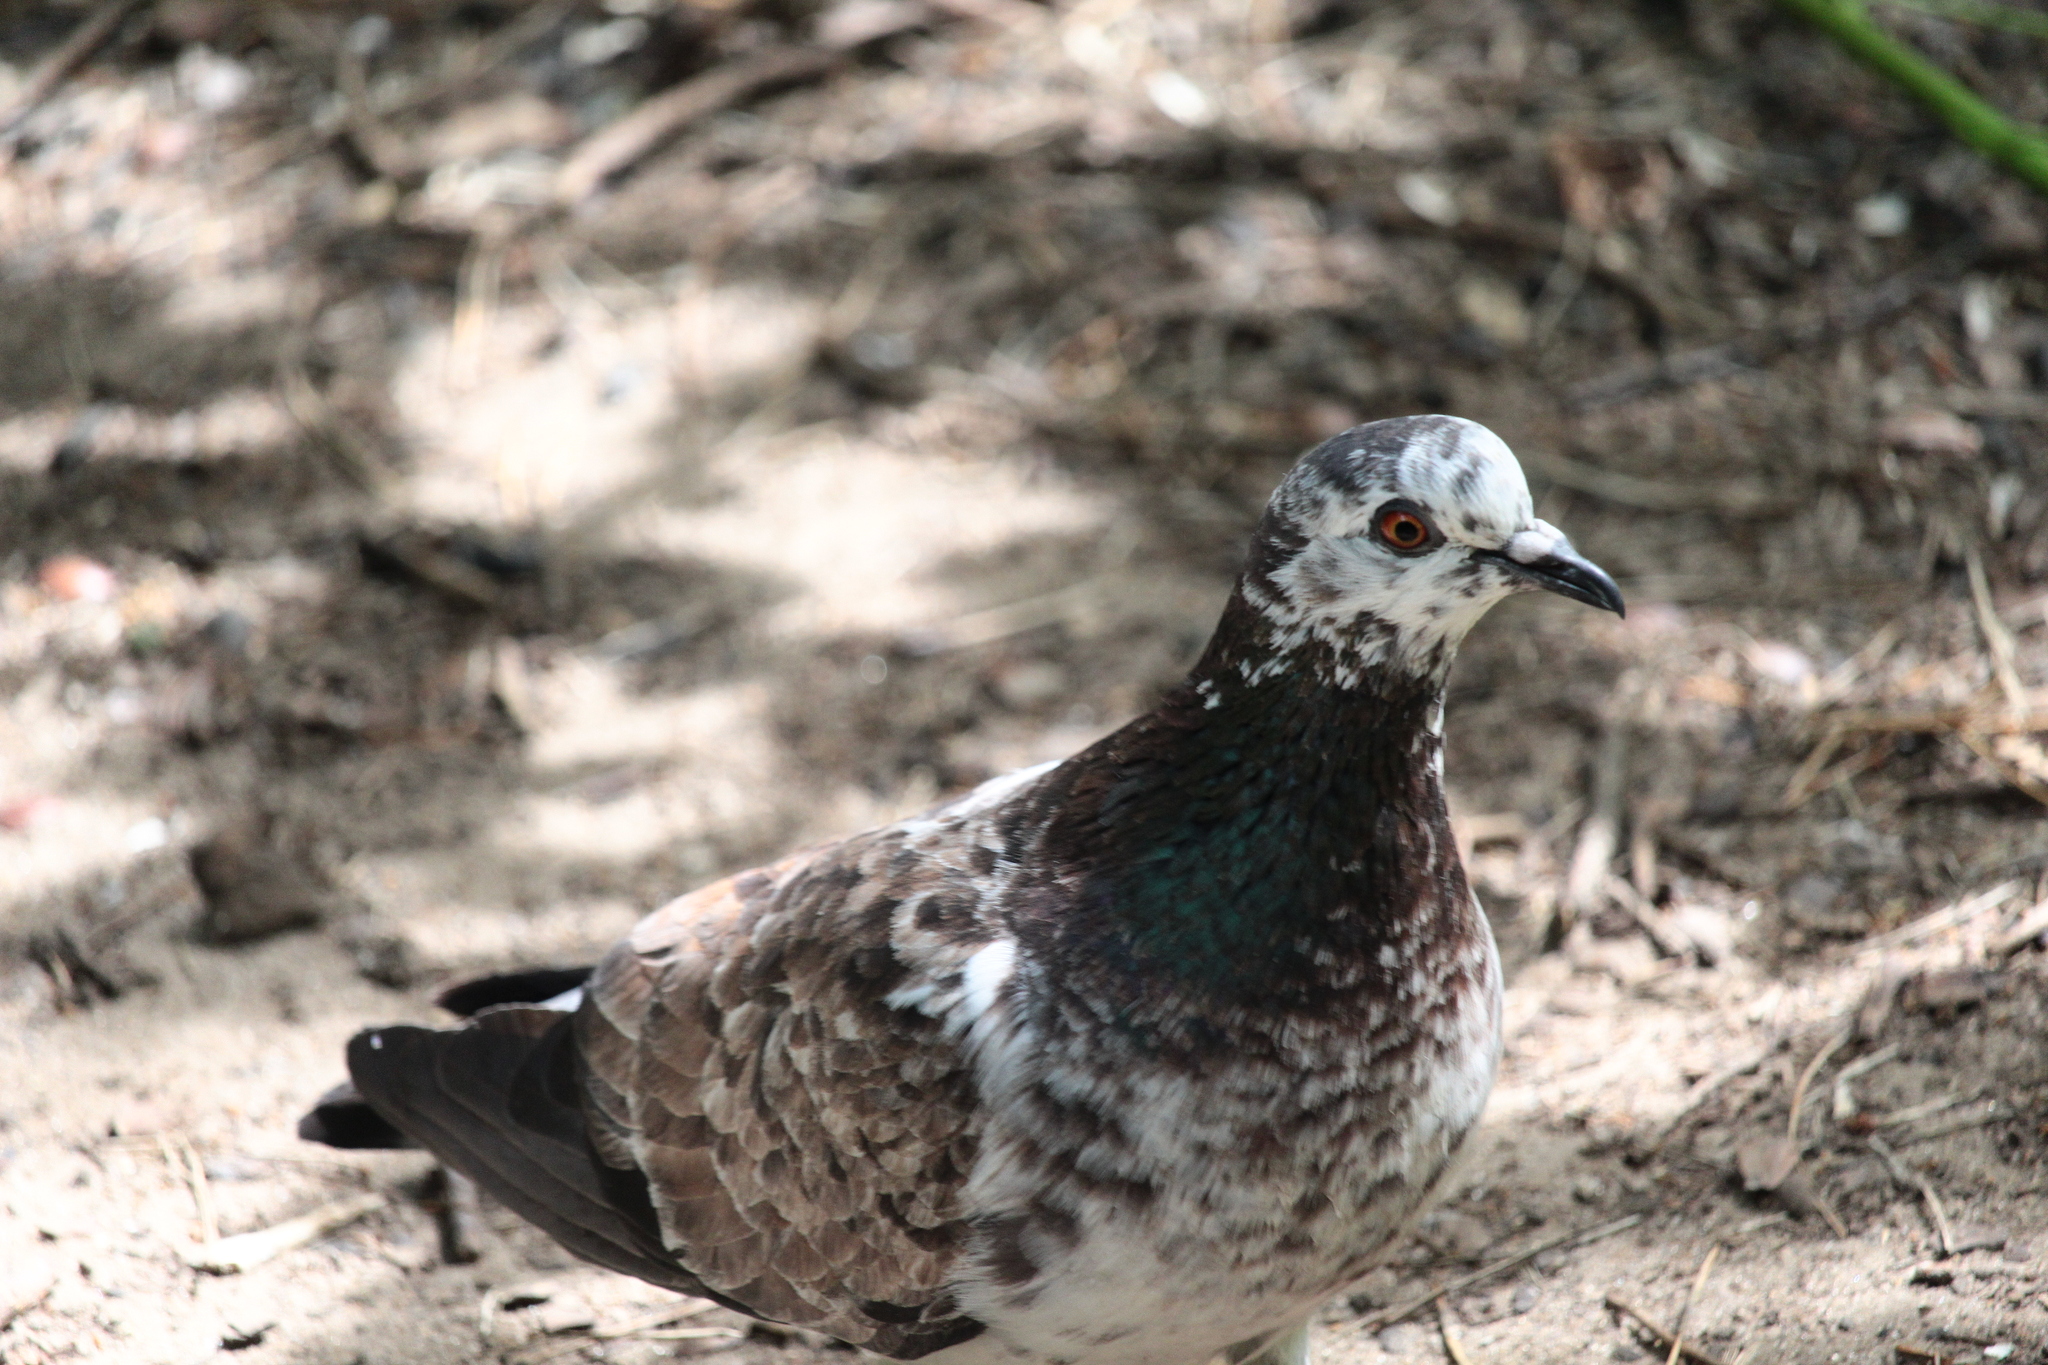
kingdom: Animalia
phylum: Chordata
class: Aves
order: Columbiformes
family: Columbidae
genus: Columba
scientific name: Columba livia
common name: Rock pigeon
